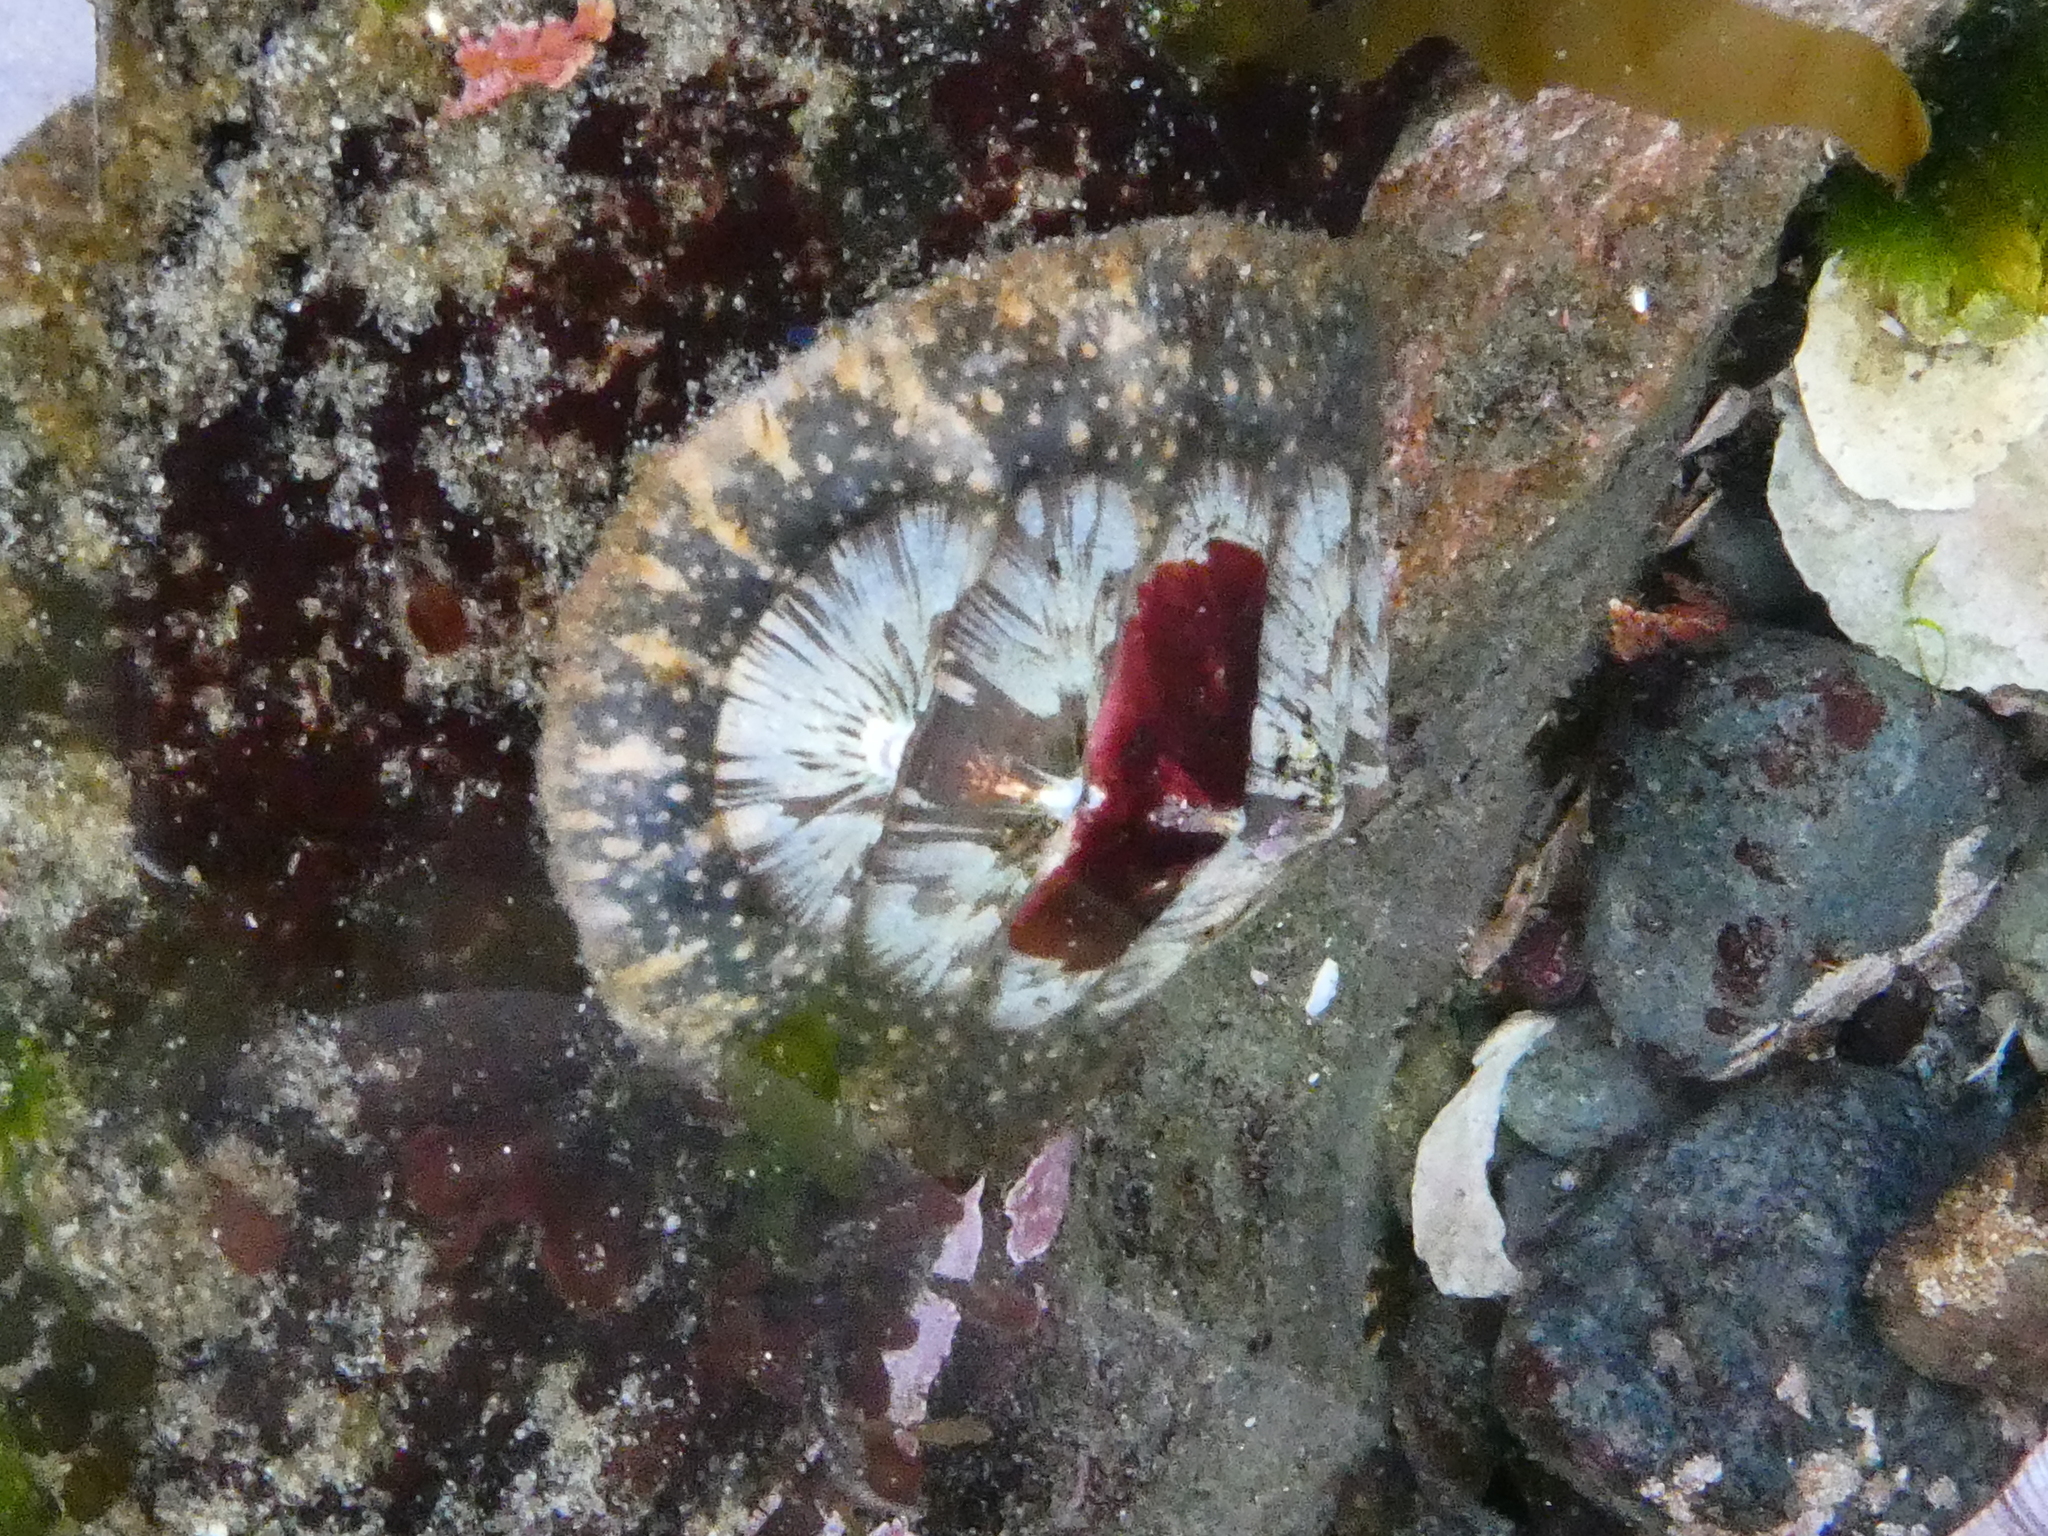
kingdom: Animalia
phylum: Mollusca
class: Polyplacophora
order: Chitonida
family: Mopaliidae
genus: Mopalia
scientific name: Mopalia lignosa
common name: Woody chiton
